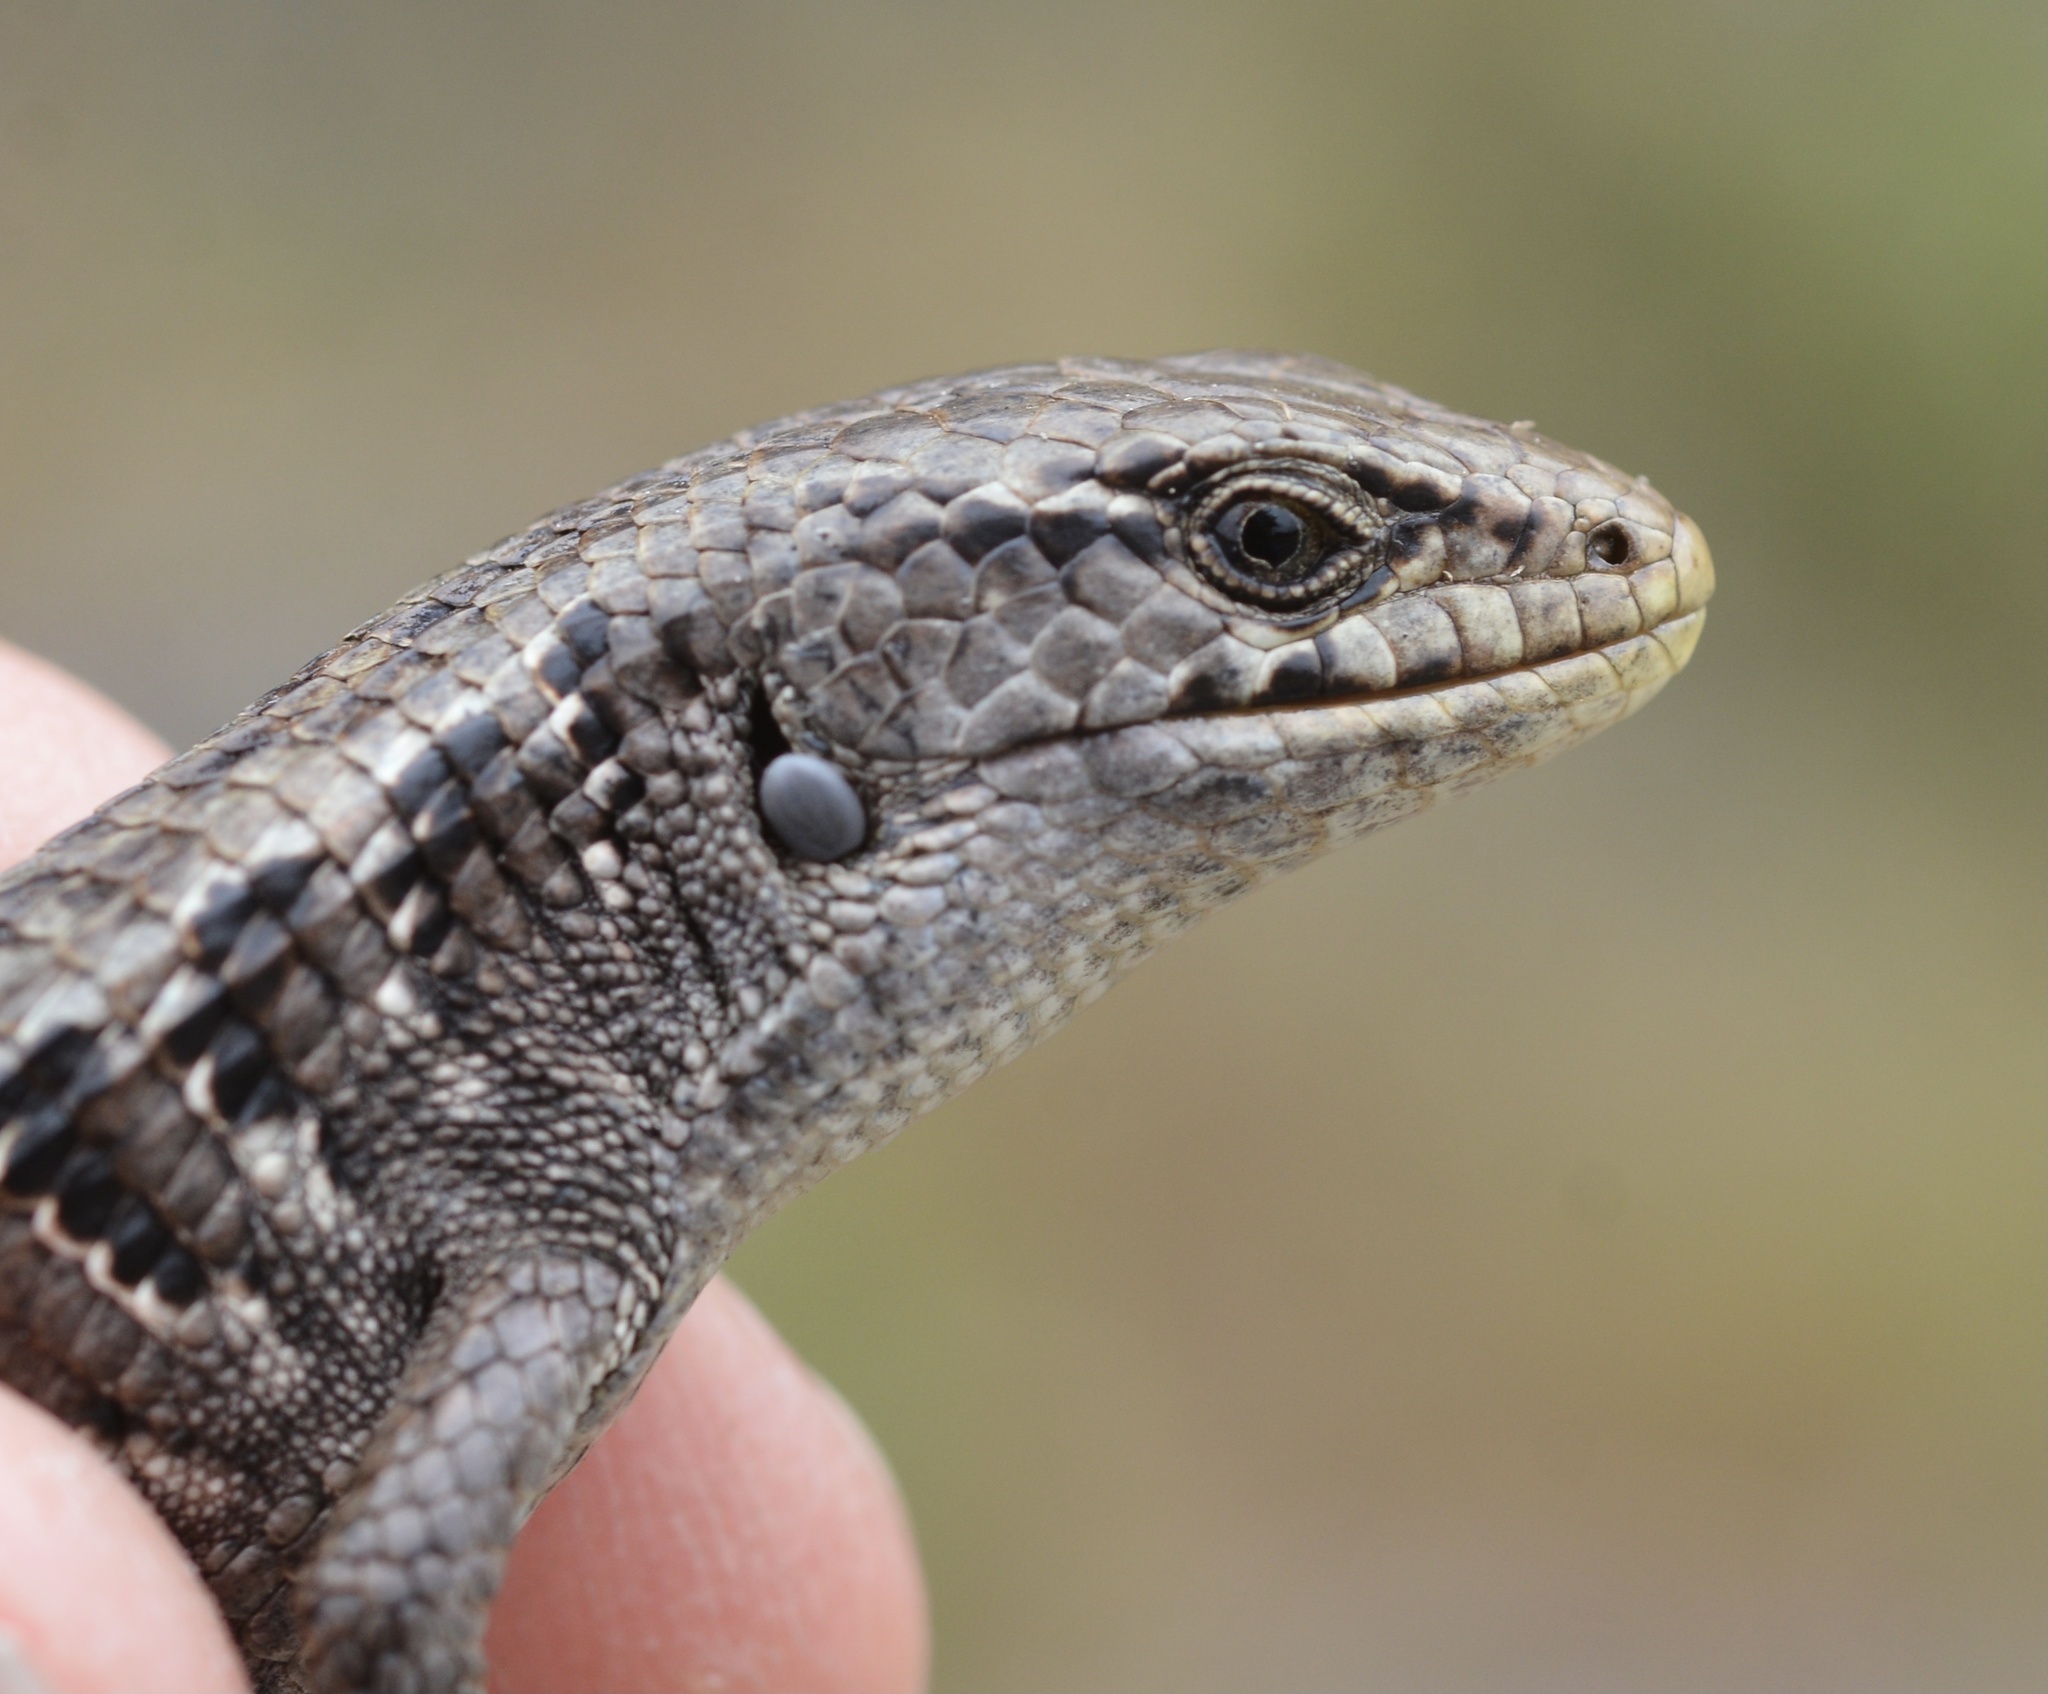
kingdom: Animalia
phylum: Chordata
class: Squamata
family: Anguidae
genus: Elgaria
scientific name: Elgaria coerulea
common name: Northern alligator lizard
